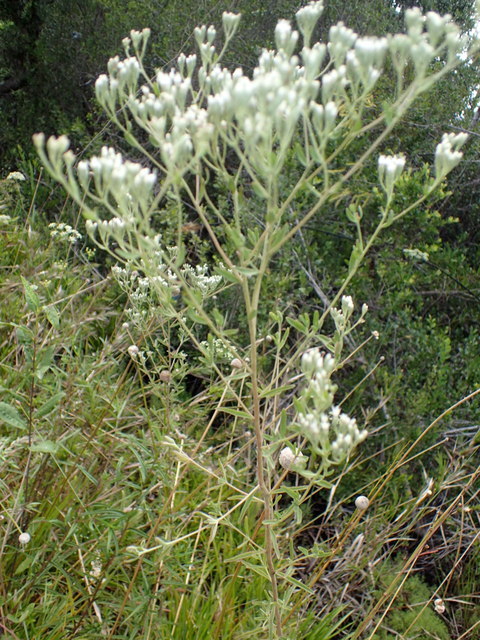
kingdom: Plantae
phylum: Tracheophyta
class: Magnoliopsida
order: Asterales
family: Asteraceae
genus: Eupatorium
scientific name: Eupatorium mohrii
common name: Mohr's thoroughwort
